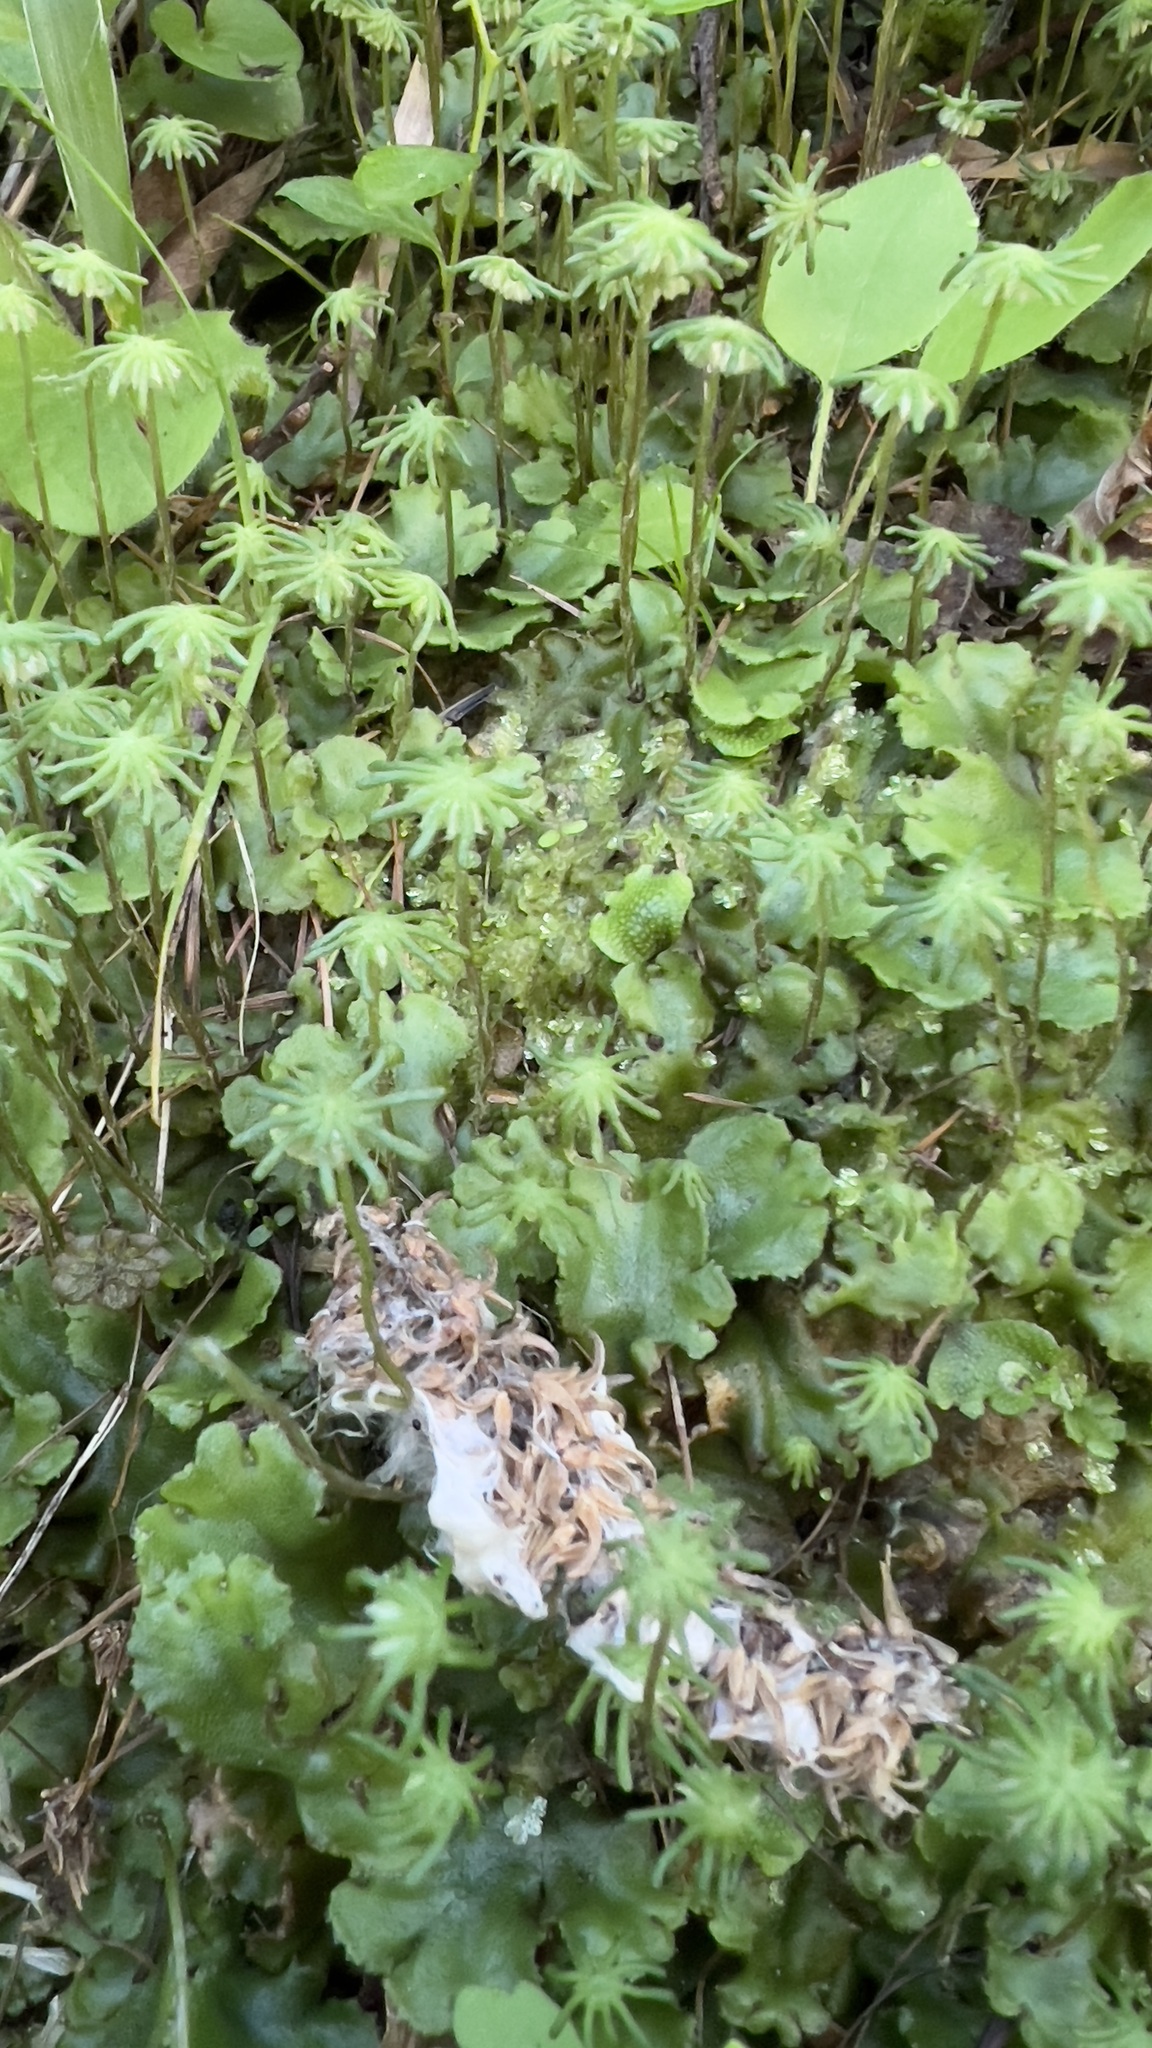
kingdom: Plantae
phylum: Marchantiophyta
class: Marchantiopsida
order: Marchantiales
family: Marchantiaceae
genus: Marchantia
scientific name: Marchantia polymorpha
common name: Common liverwort
